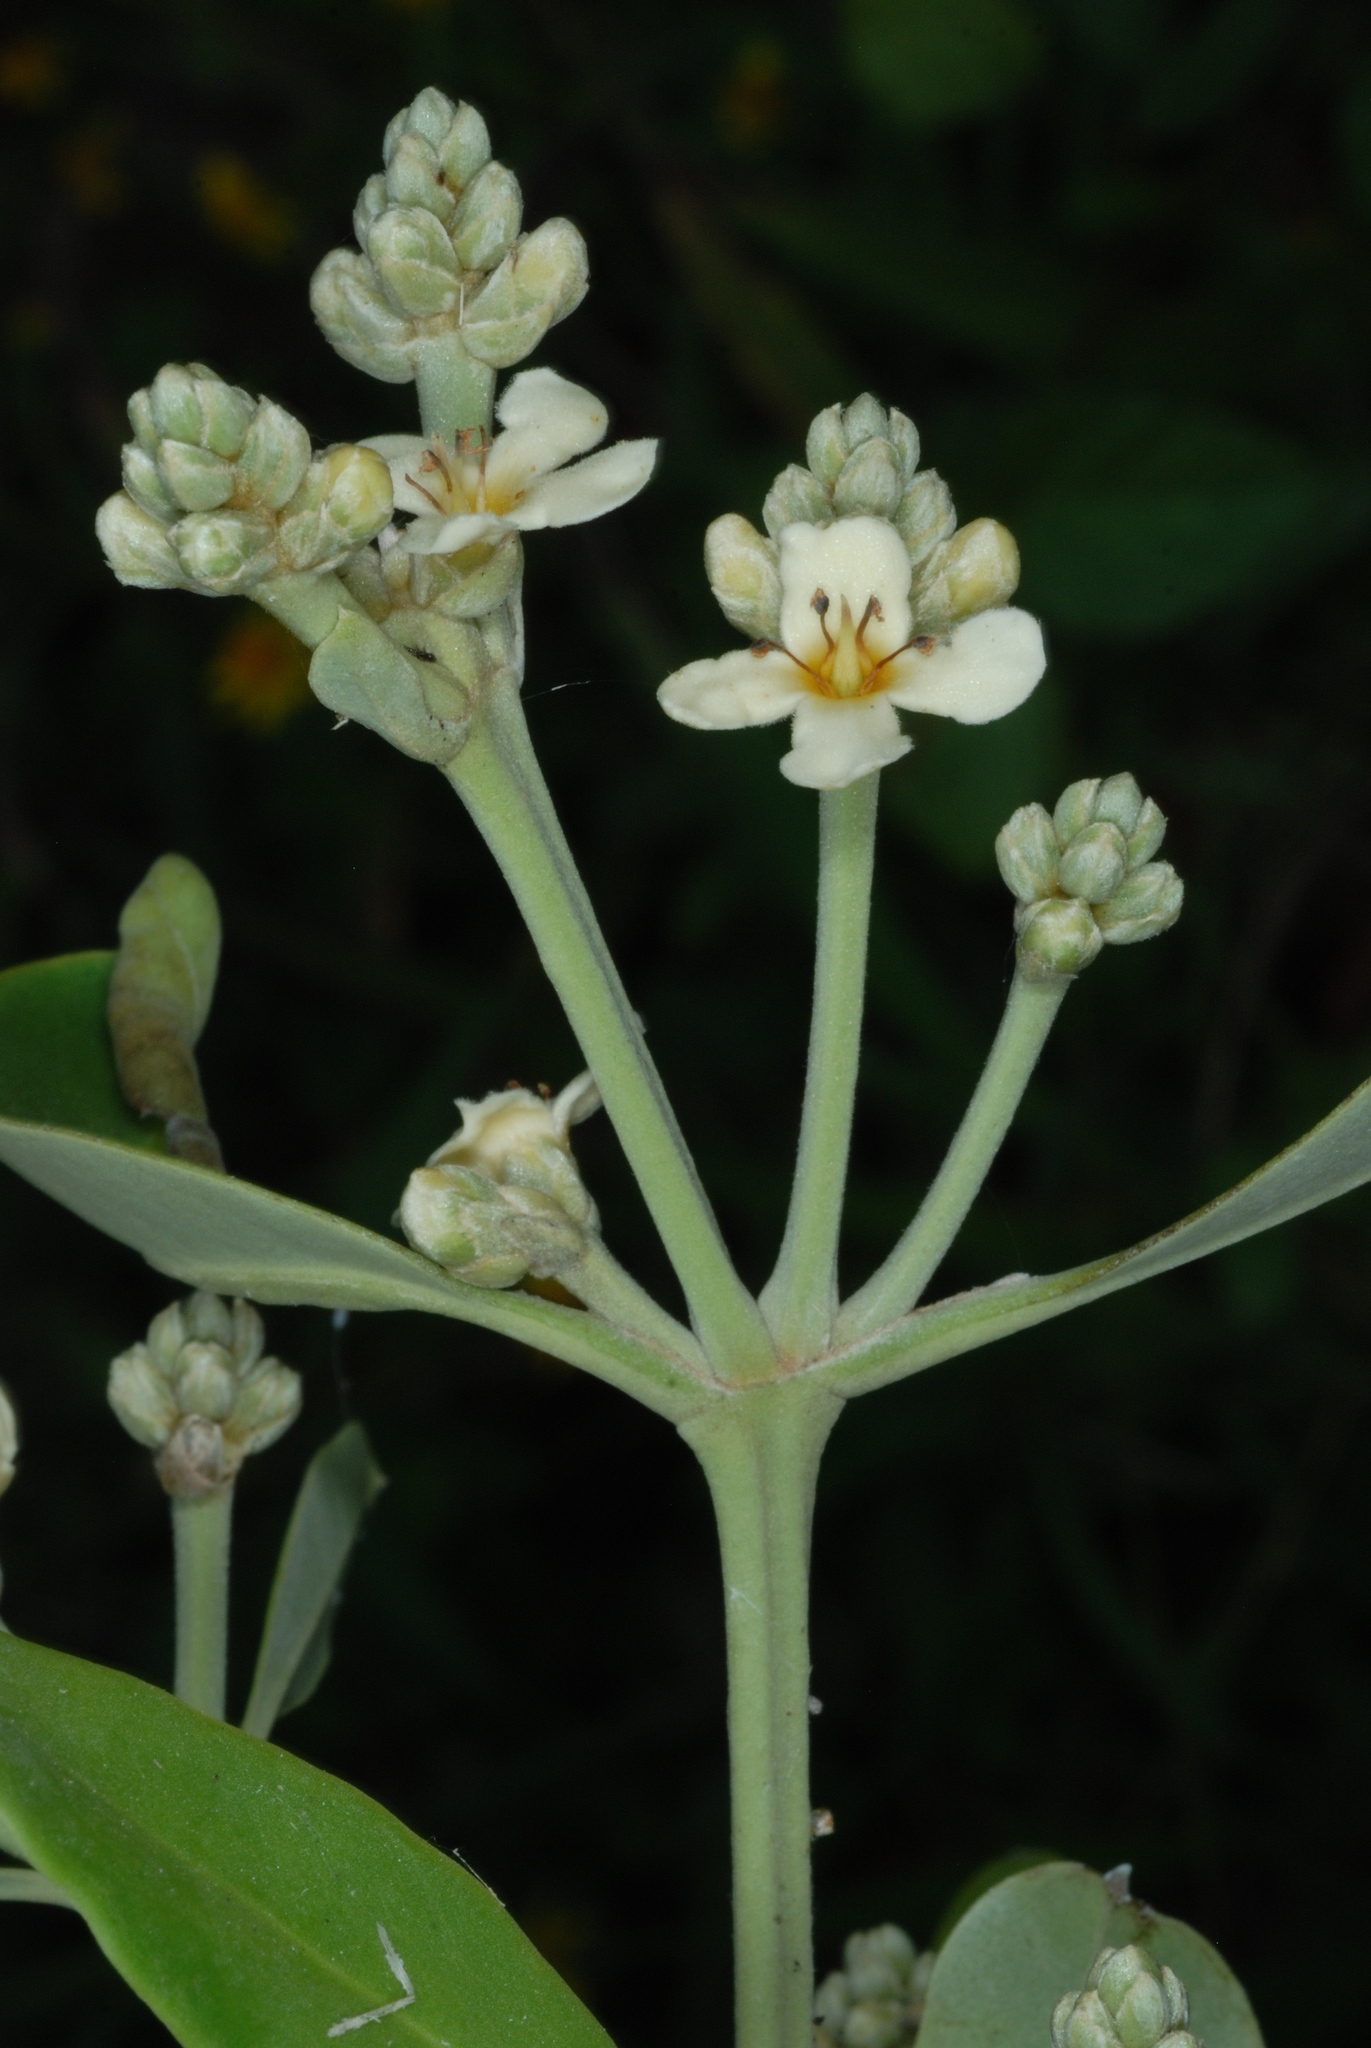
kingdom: Plantae
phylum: Tracheophyta
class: Magnoliopsida
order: Lamiales
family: Acanthaceae
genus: Avicennia
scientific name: Avicennia germinans
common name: Black mangrove
